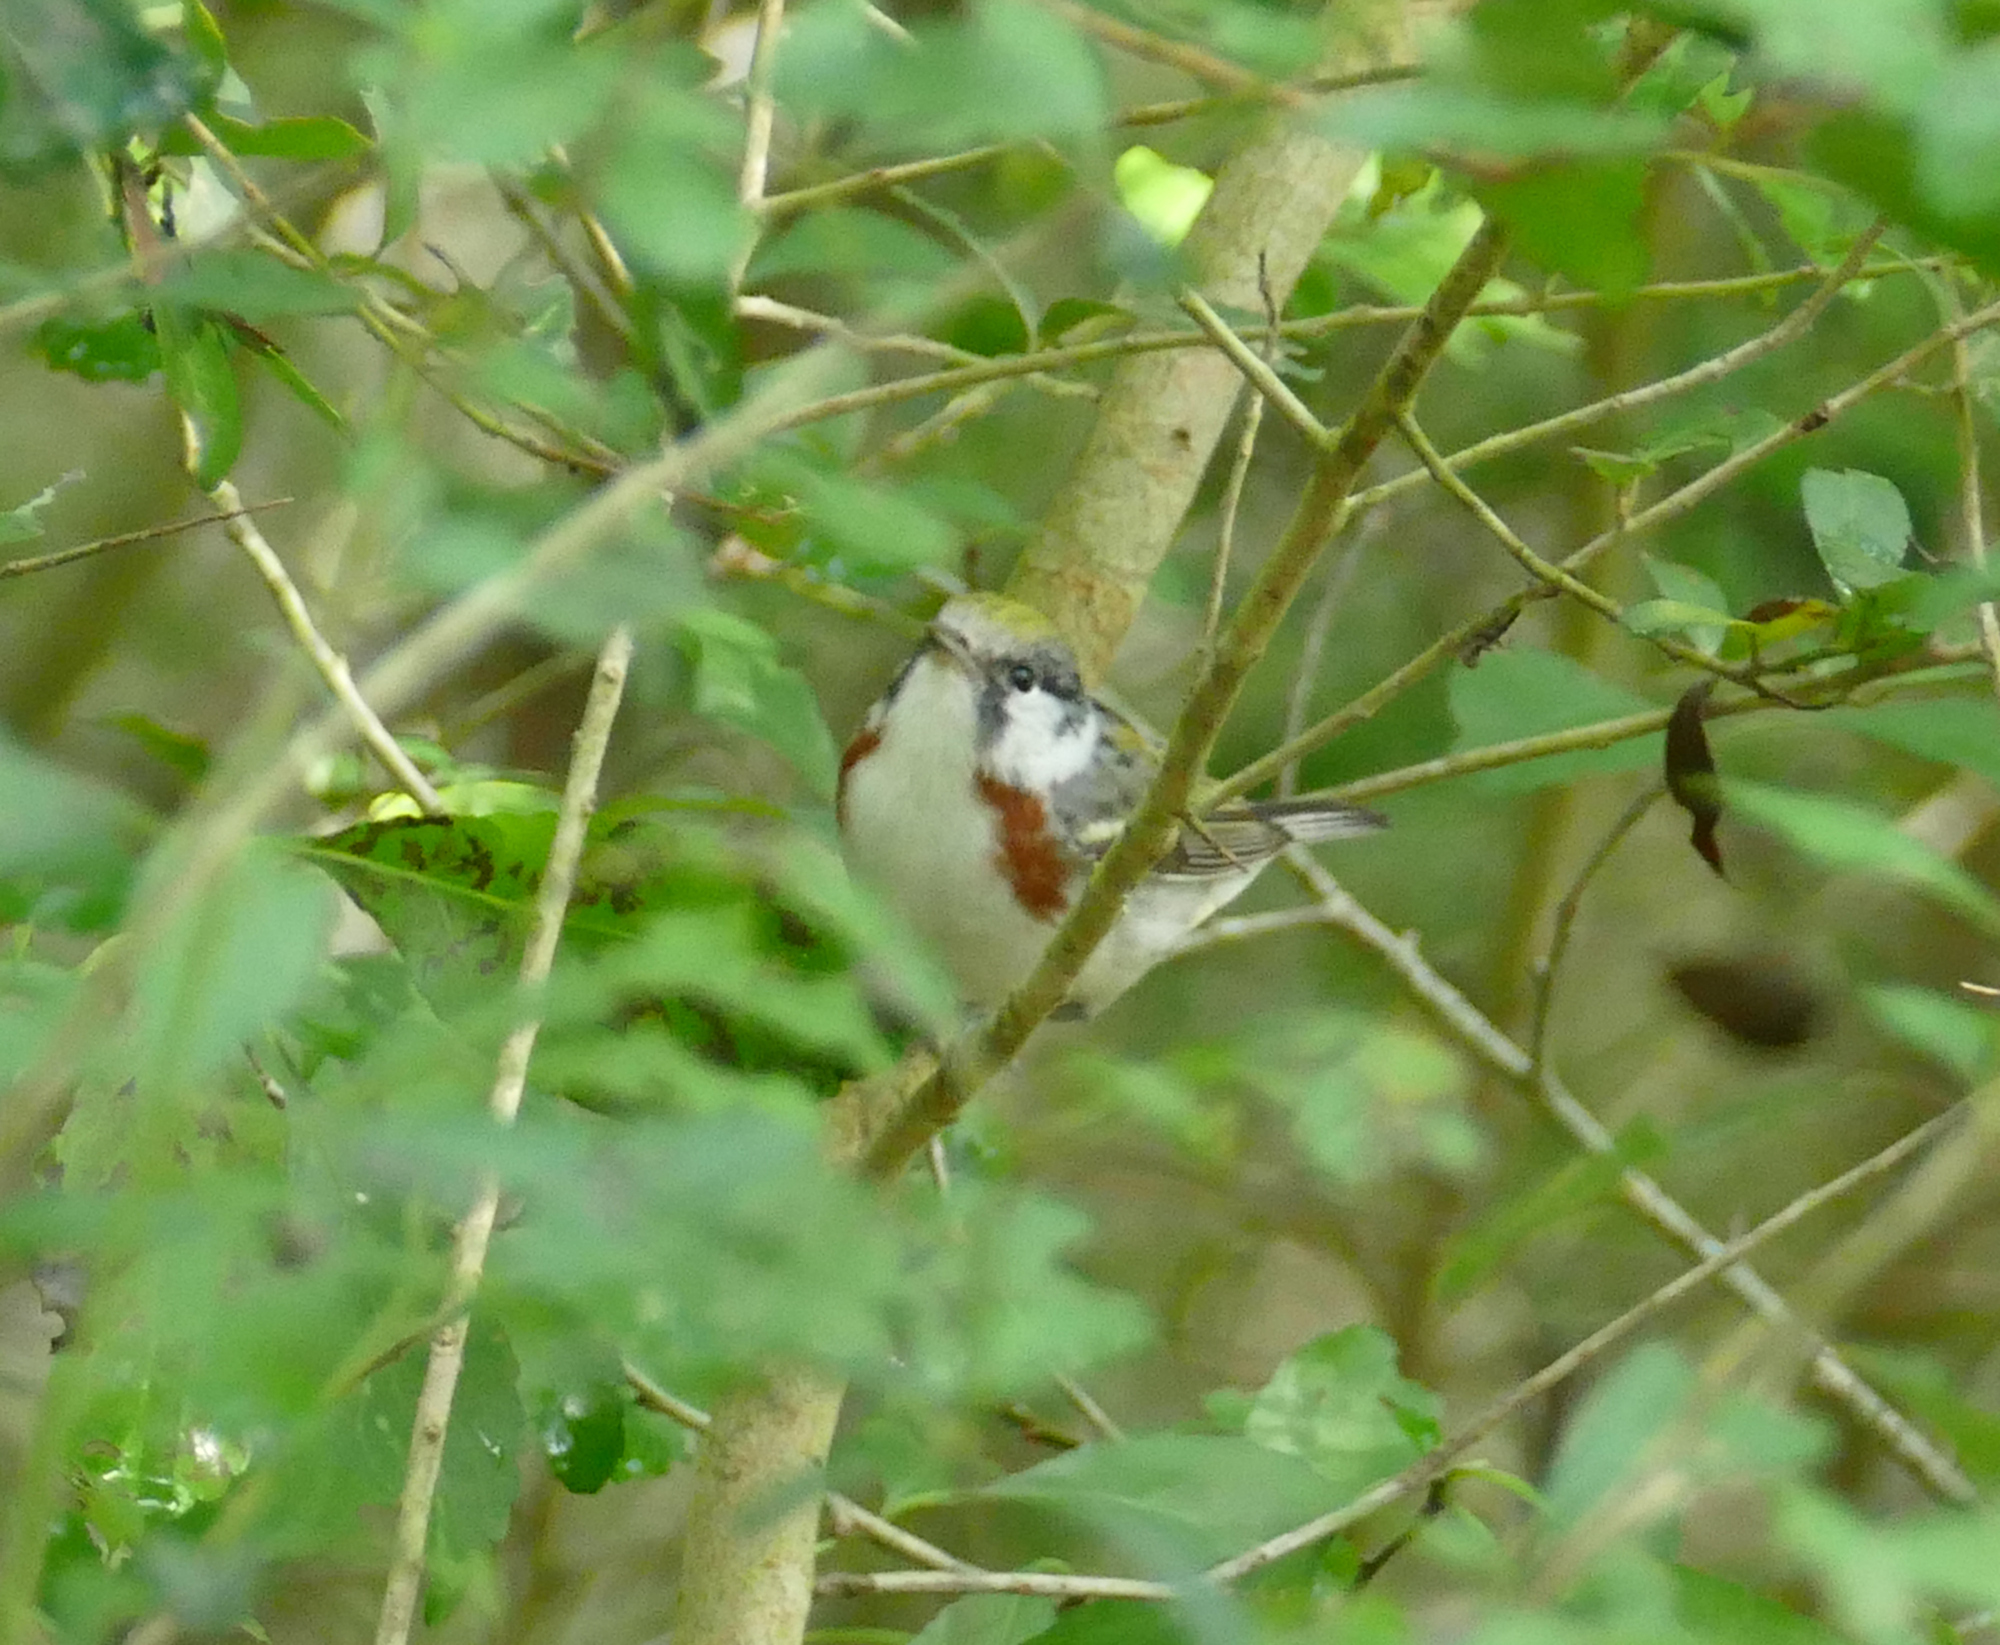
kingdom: Animalia
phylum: Chordata
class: Aves
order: Passeriformes
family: Parulidae
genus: Setophaga
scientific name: Setophaga pensylvanica
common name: Chestnut-sided warbler
